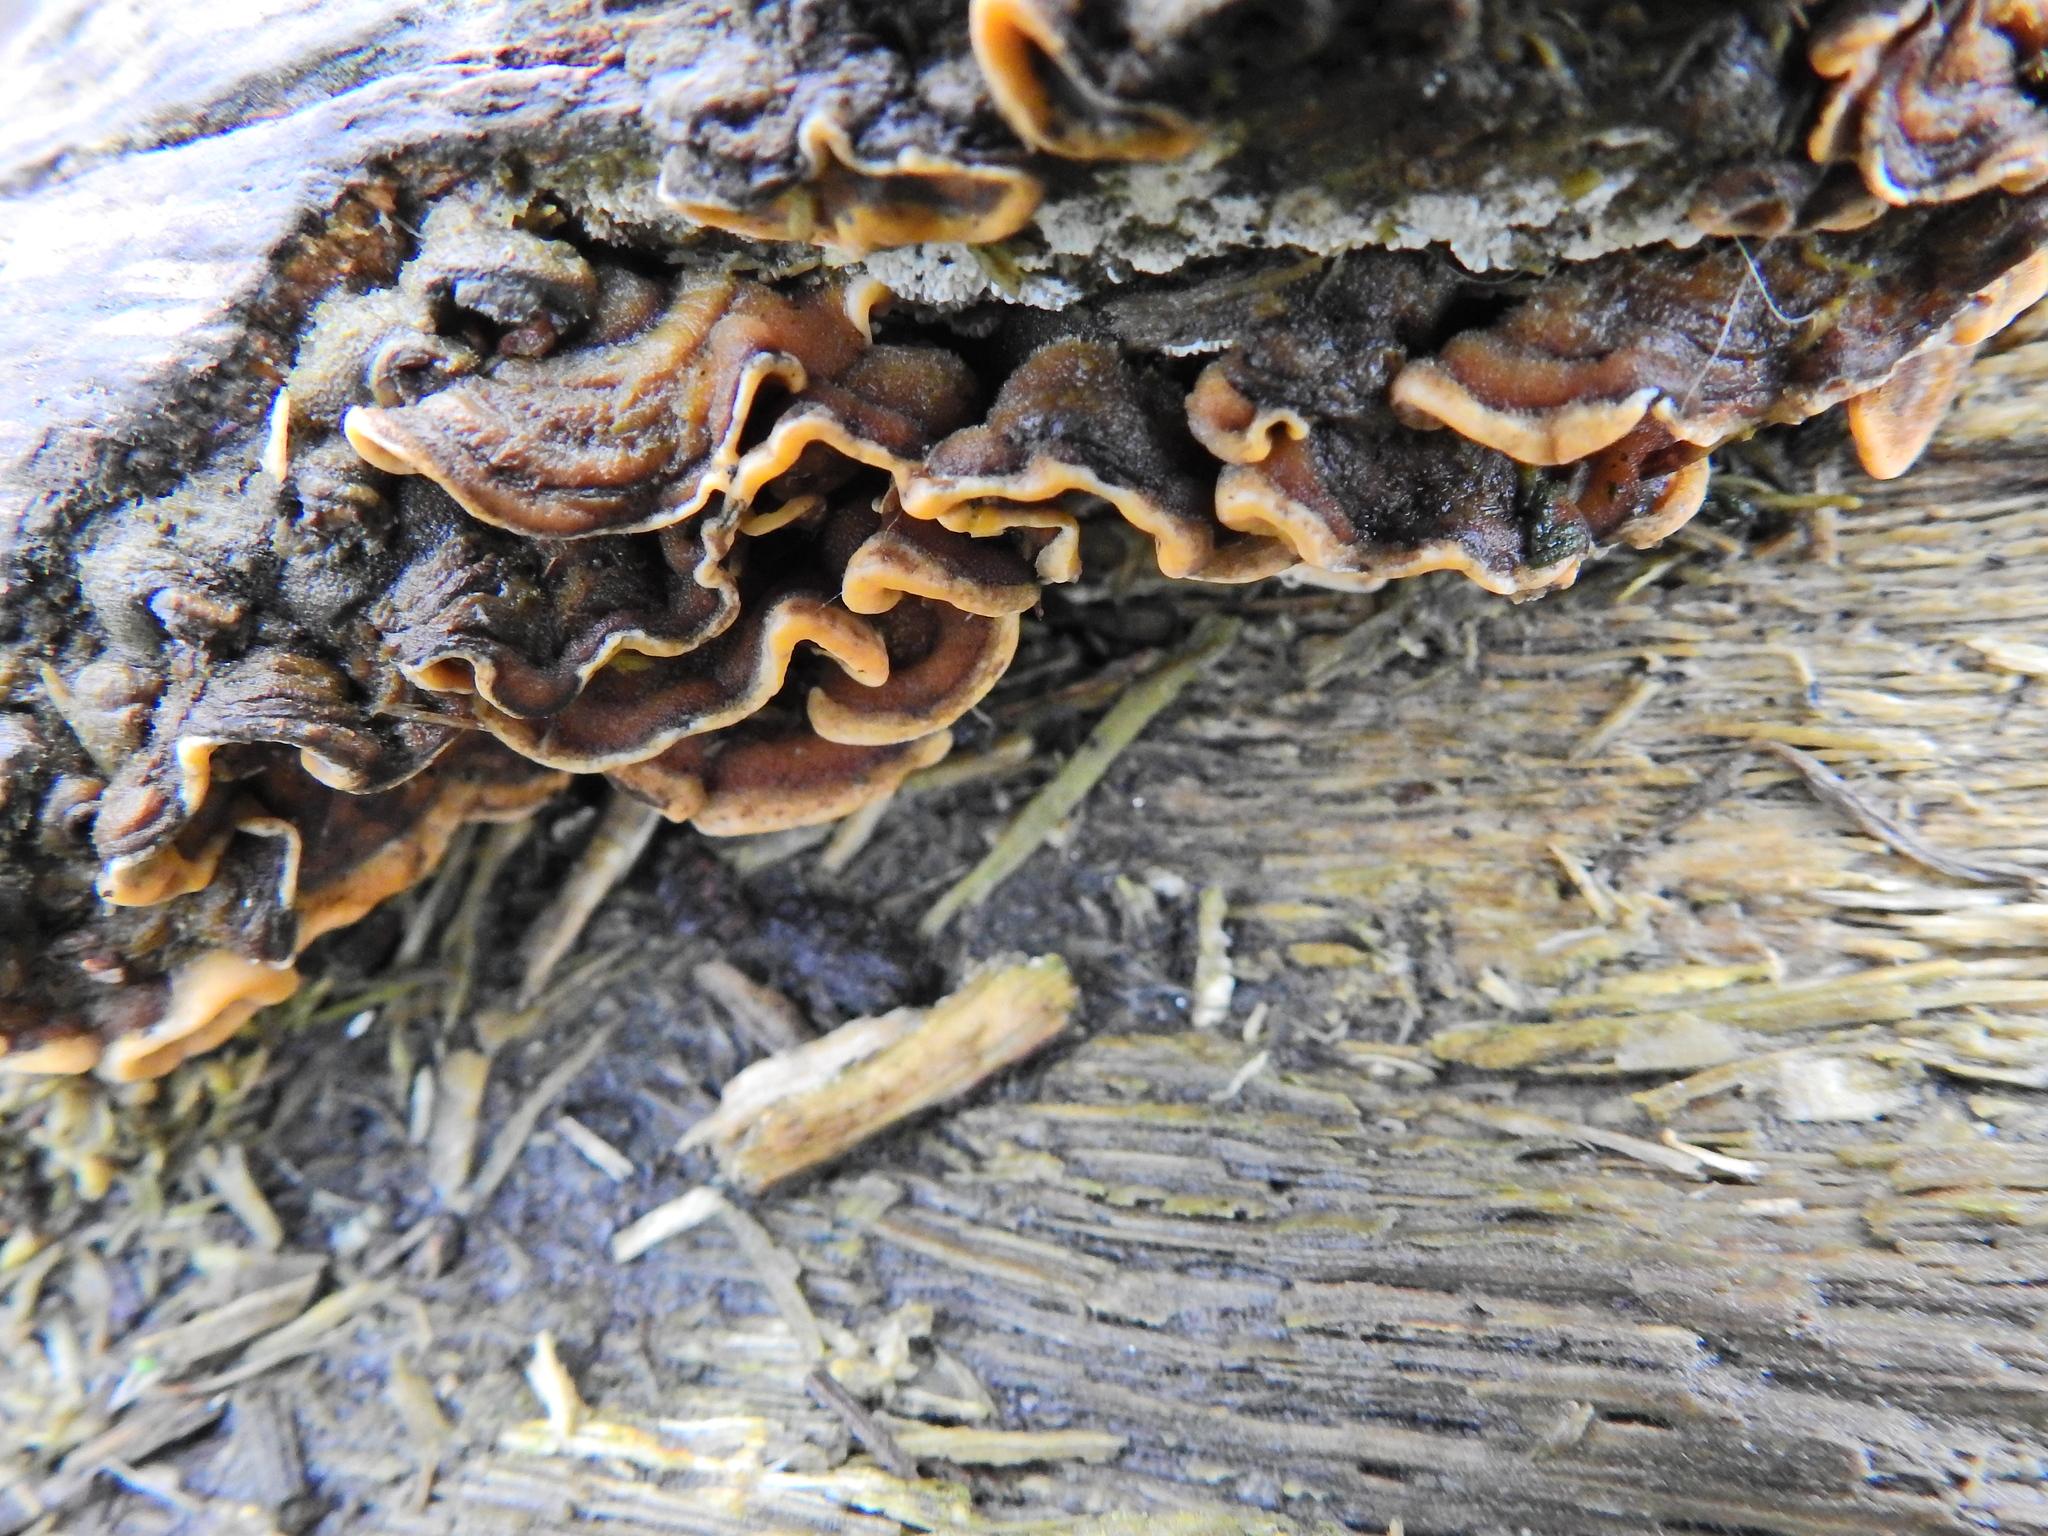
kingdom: Fungi
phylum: Basidiomycota
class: Agaricomycetes
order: Russulales
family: Stereaceae
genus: Stereum
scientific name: Stereum hirsutum
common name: Hairy curtain crust
